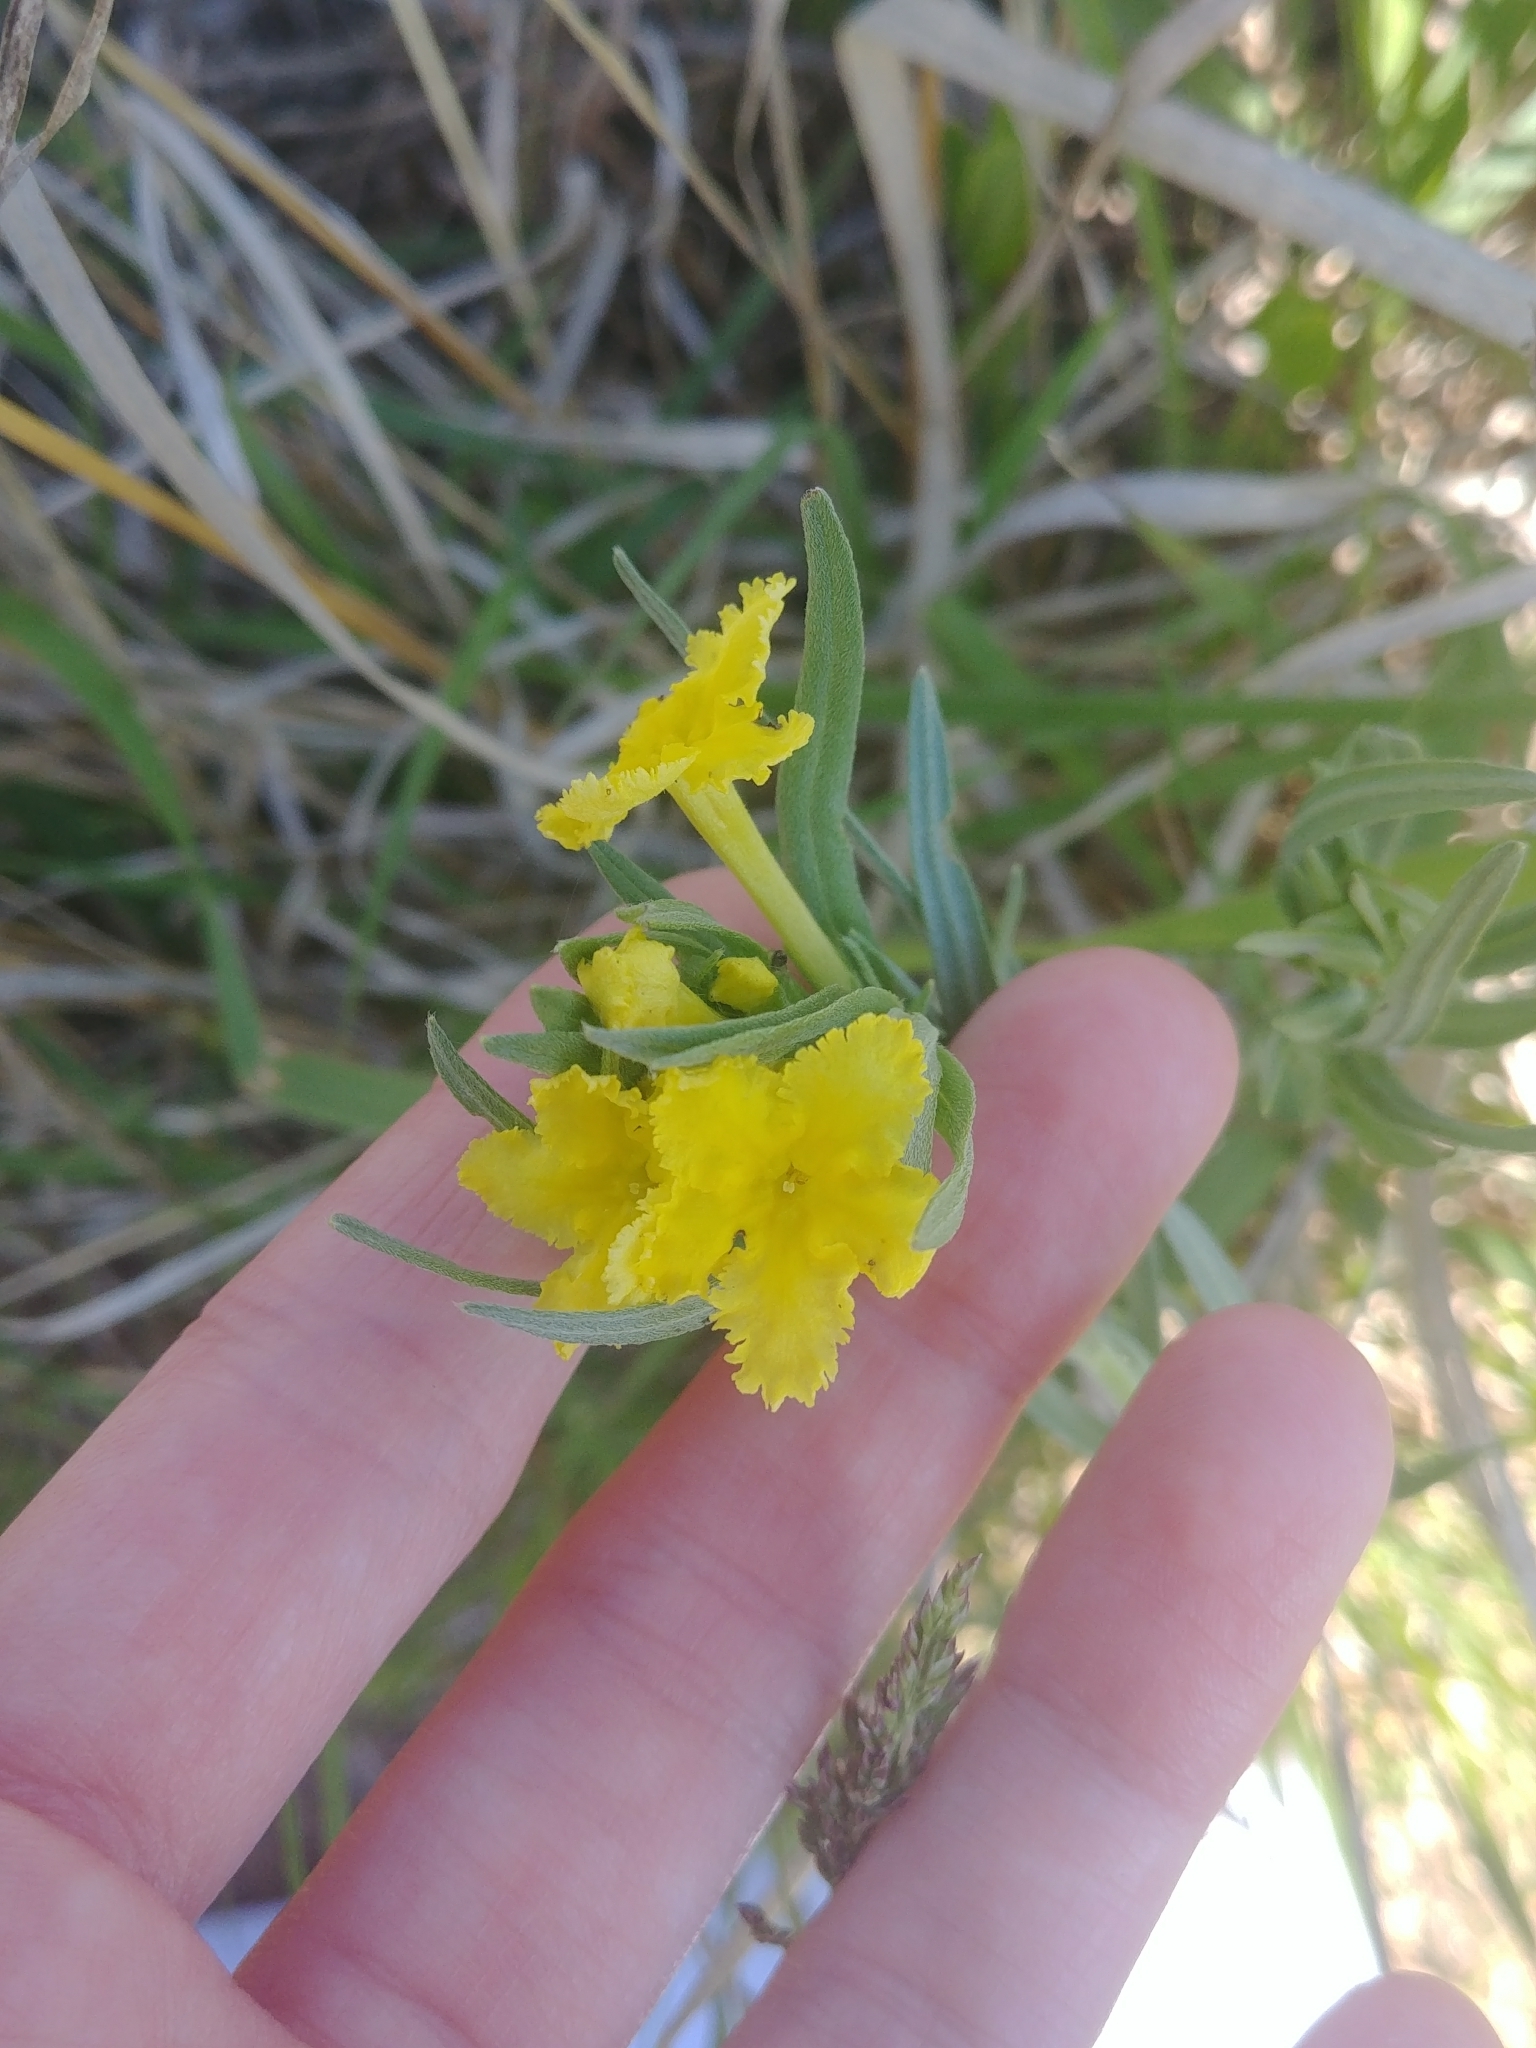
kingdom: Plantae
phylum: Tracheophyta
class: Magnoliopsida
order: Boraginales
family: Boraginaceae
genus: Lithospermum
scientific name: Lithospermum incisum
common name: Fringed gromwell
